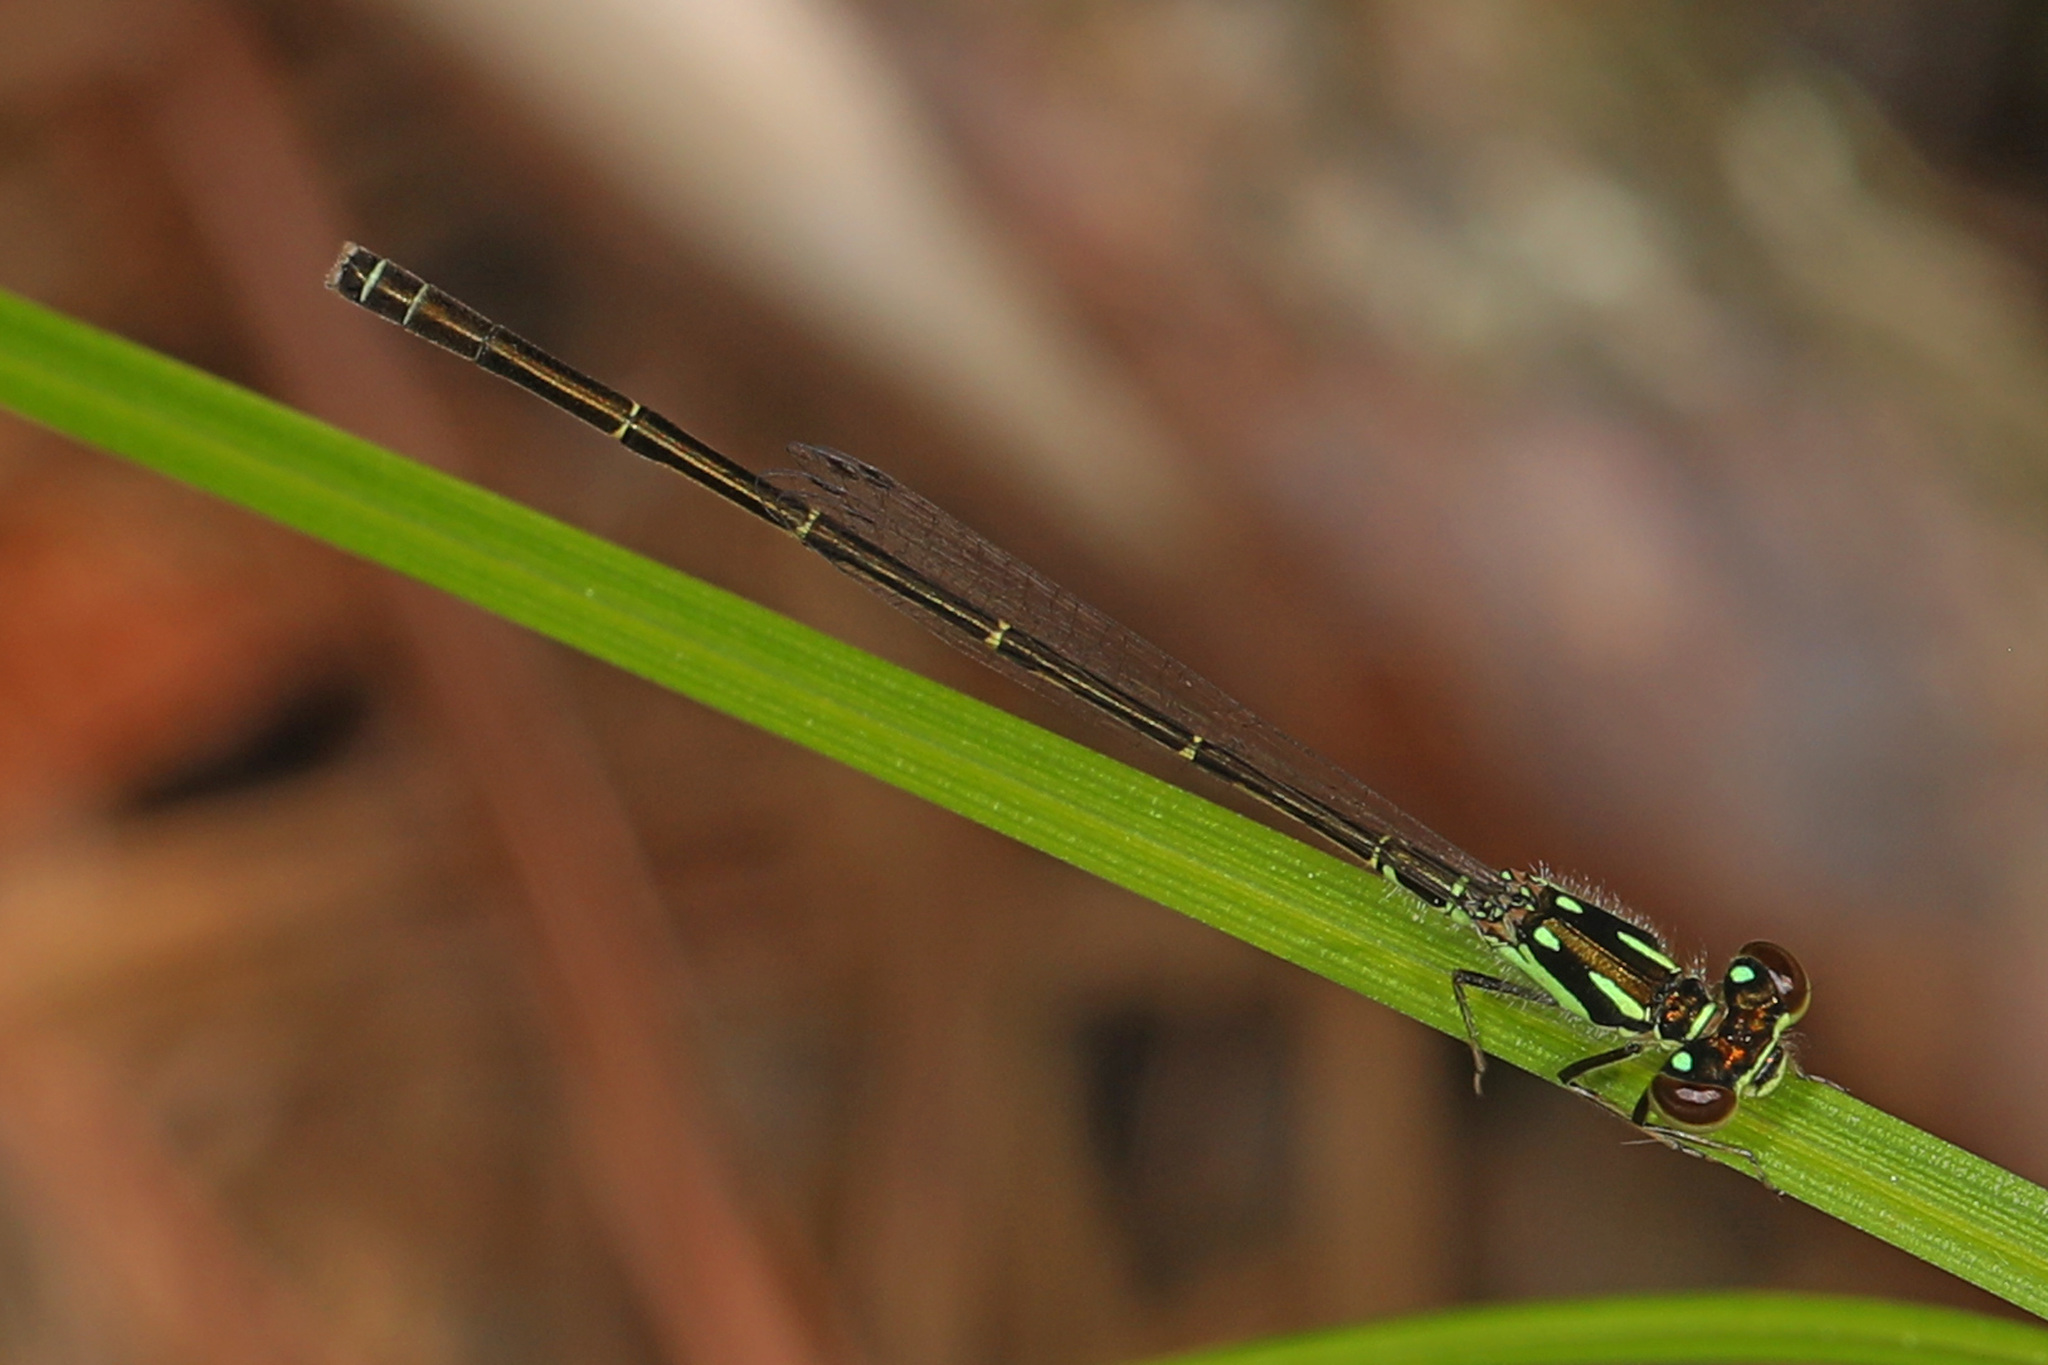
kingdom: Animalia
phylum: Arthropoda
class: Insecta
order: Odonata
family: Coenagrionidae
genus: Ischnura
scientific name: Ischnura posita
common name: Fragile forktail
